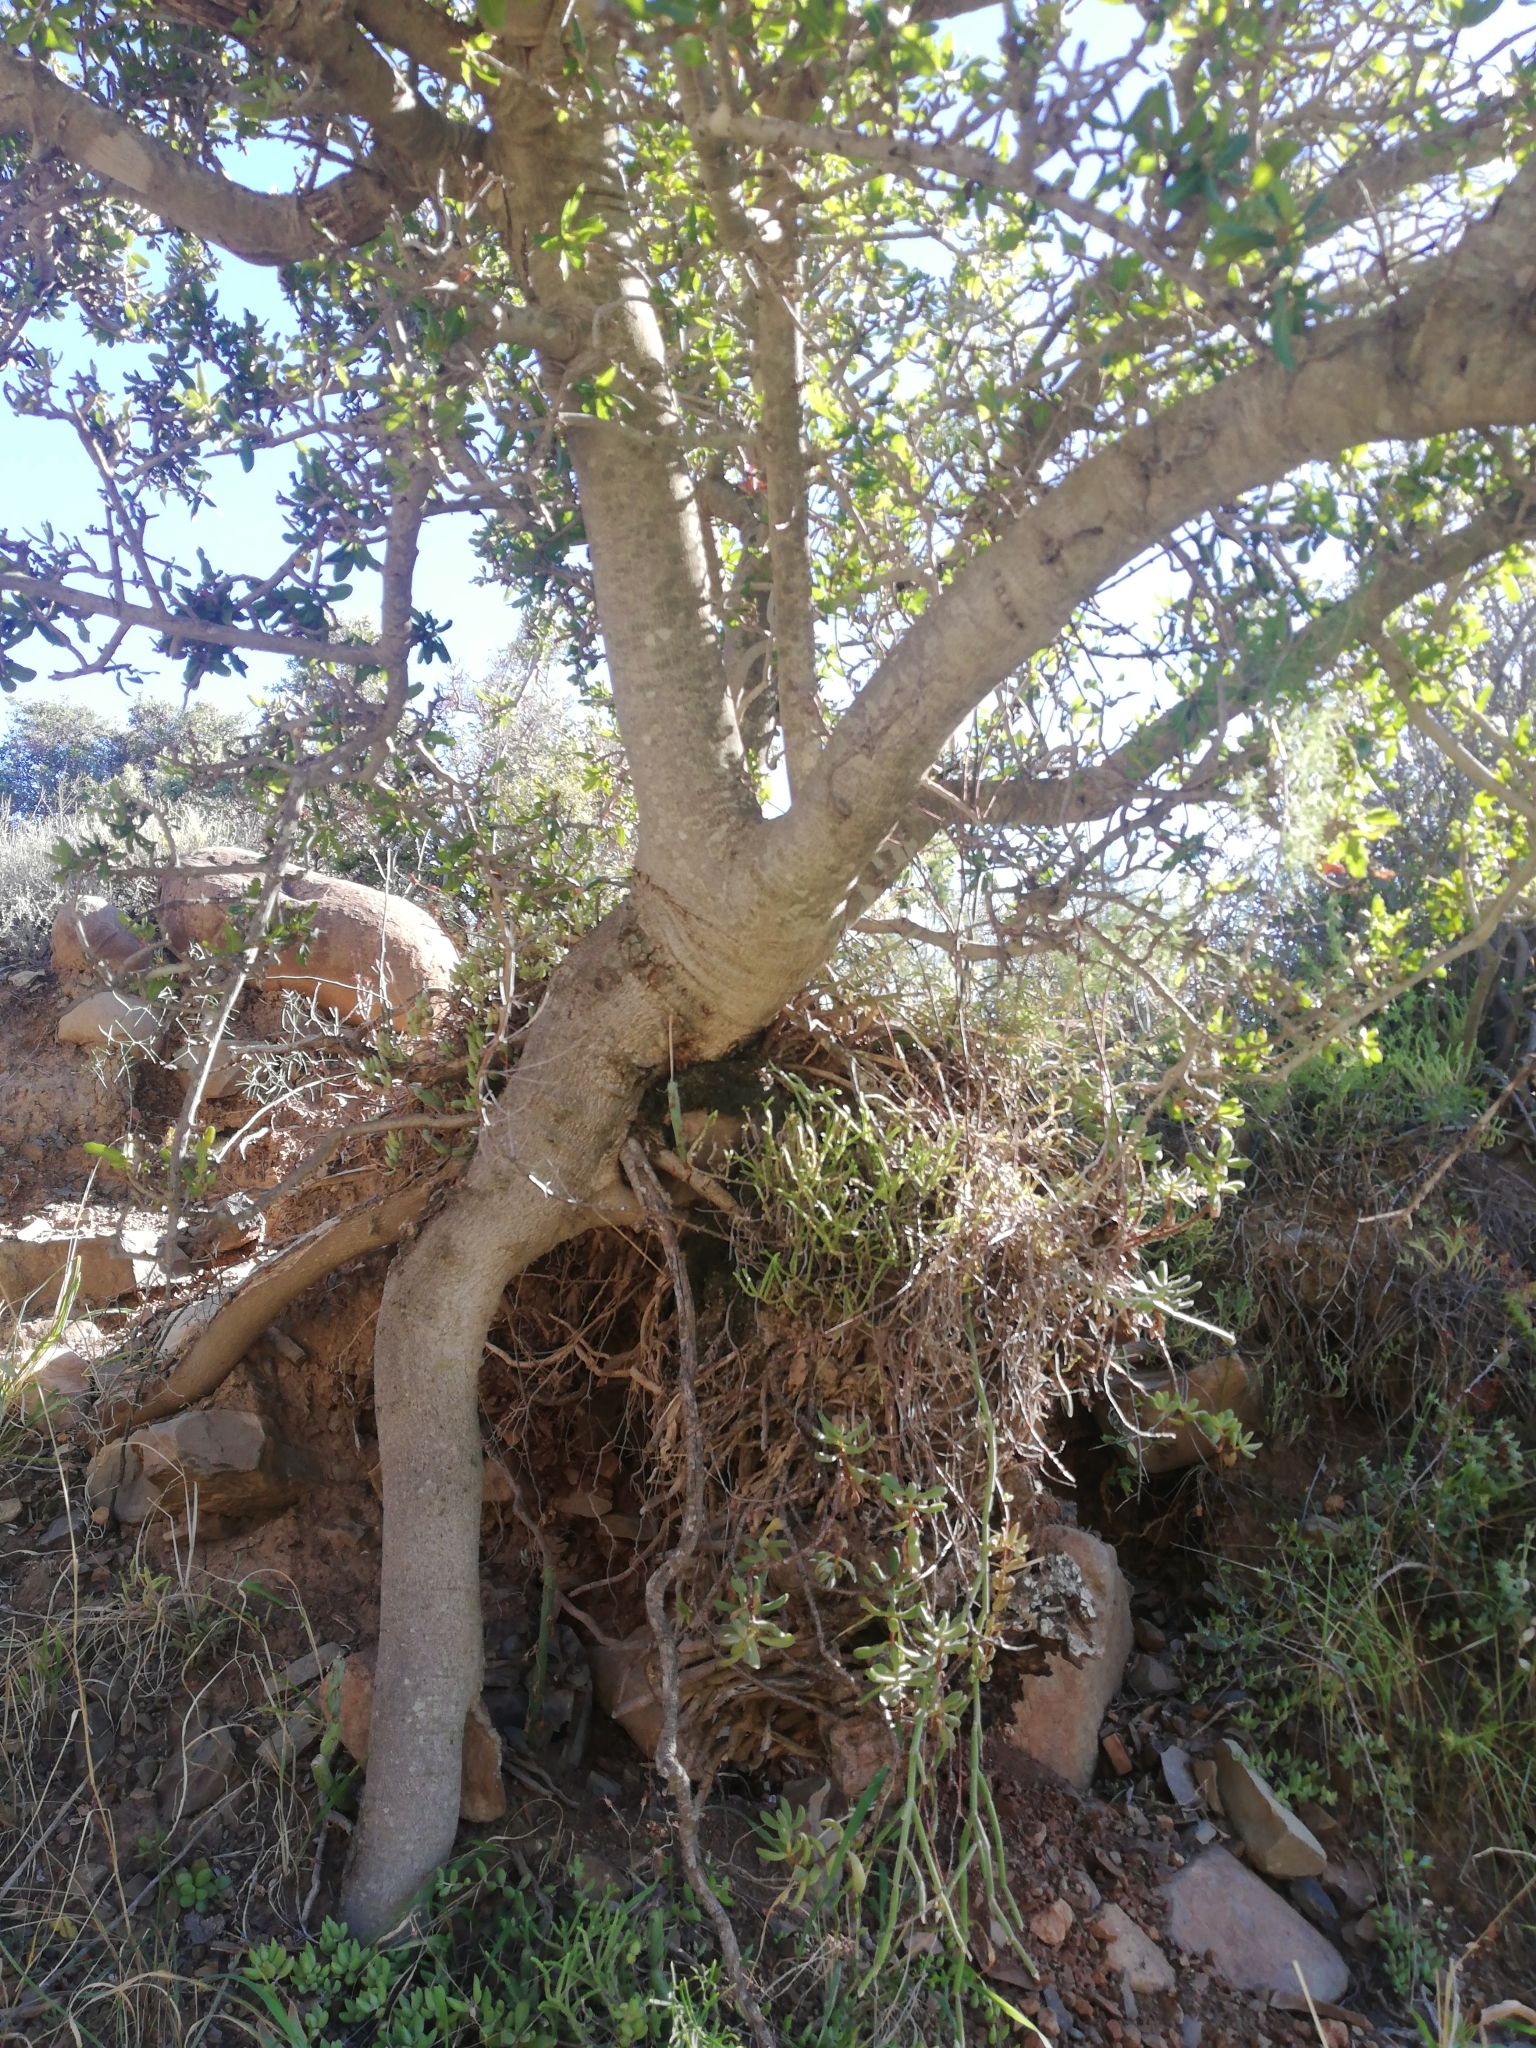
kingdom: Plantae
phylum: Tracheophyta
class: Magnoliopsida
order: Sapindales
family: Sapindaceae
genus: Pappea
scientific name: Pappea capensis
